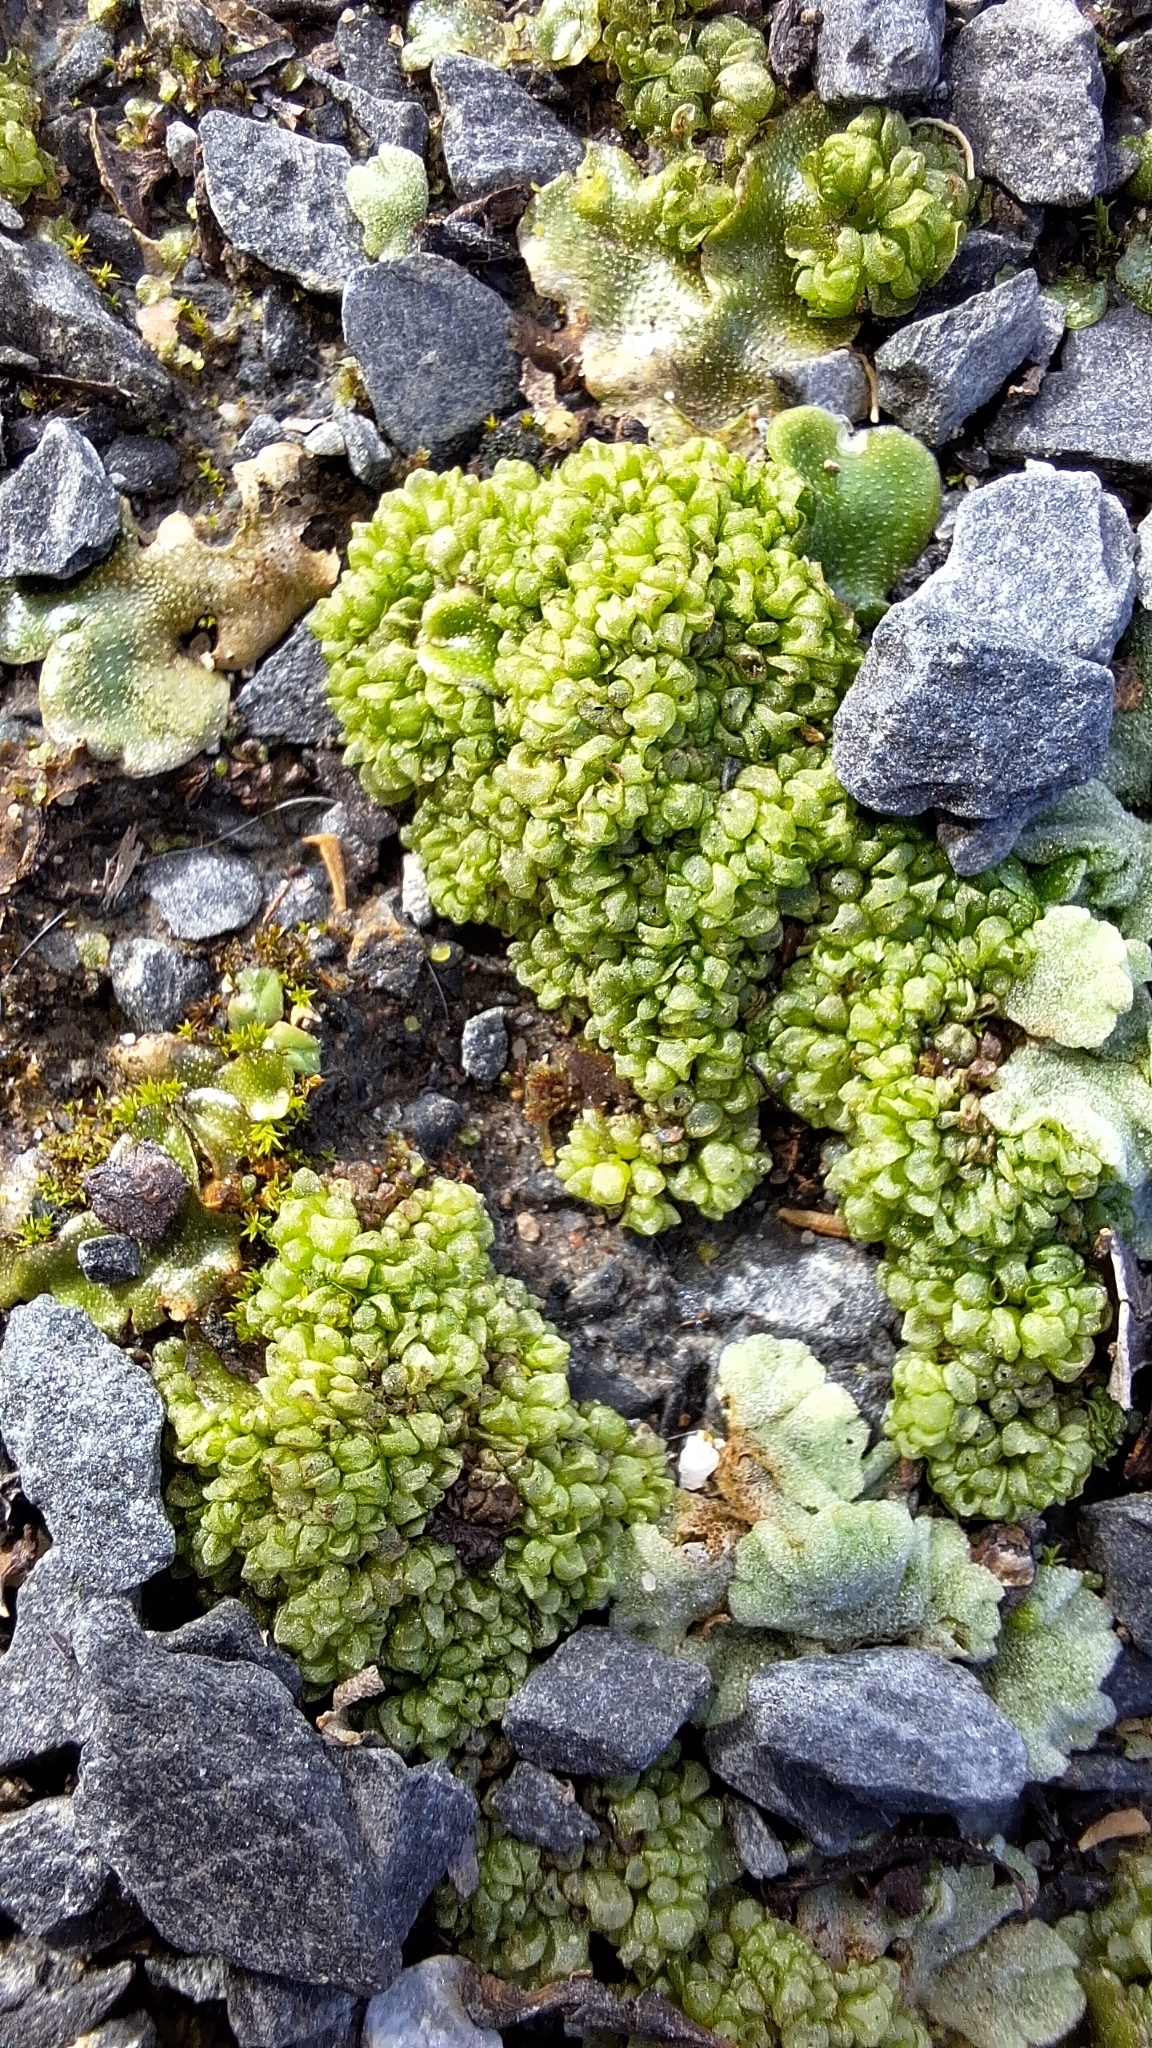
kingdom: Plantae
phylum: Marchantiophyta
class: Marchantiopsida
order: Sphaerocarpales
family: Sphaerocarpaceae
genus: Sphaerocarpos
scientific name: Sphaerocarpos texanus
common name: Texas balloonwort
